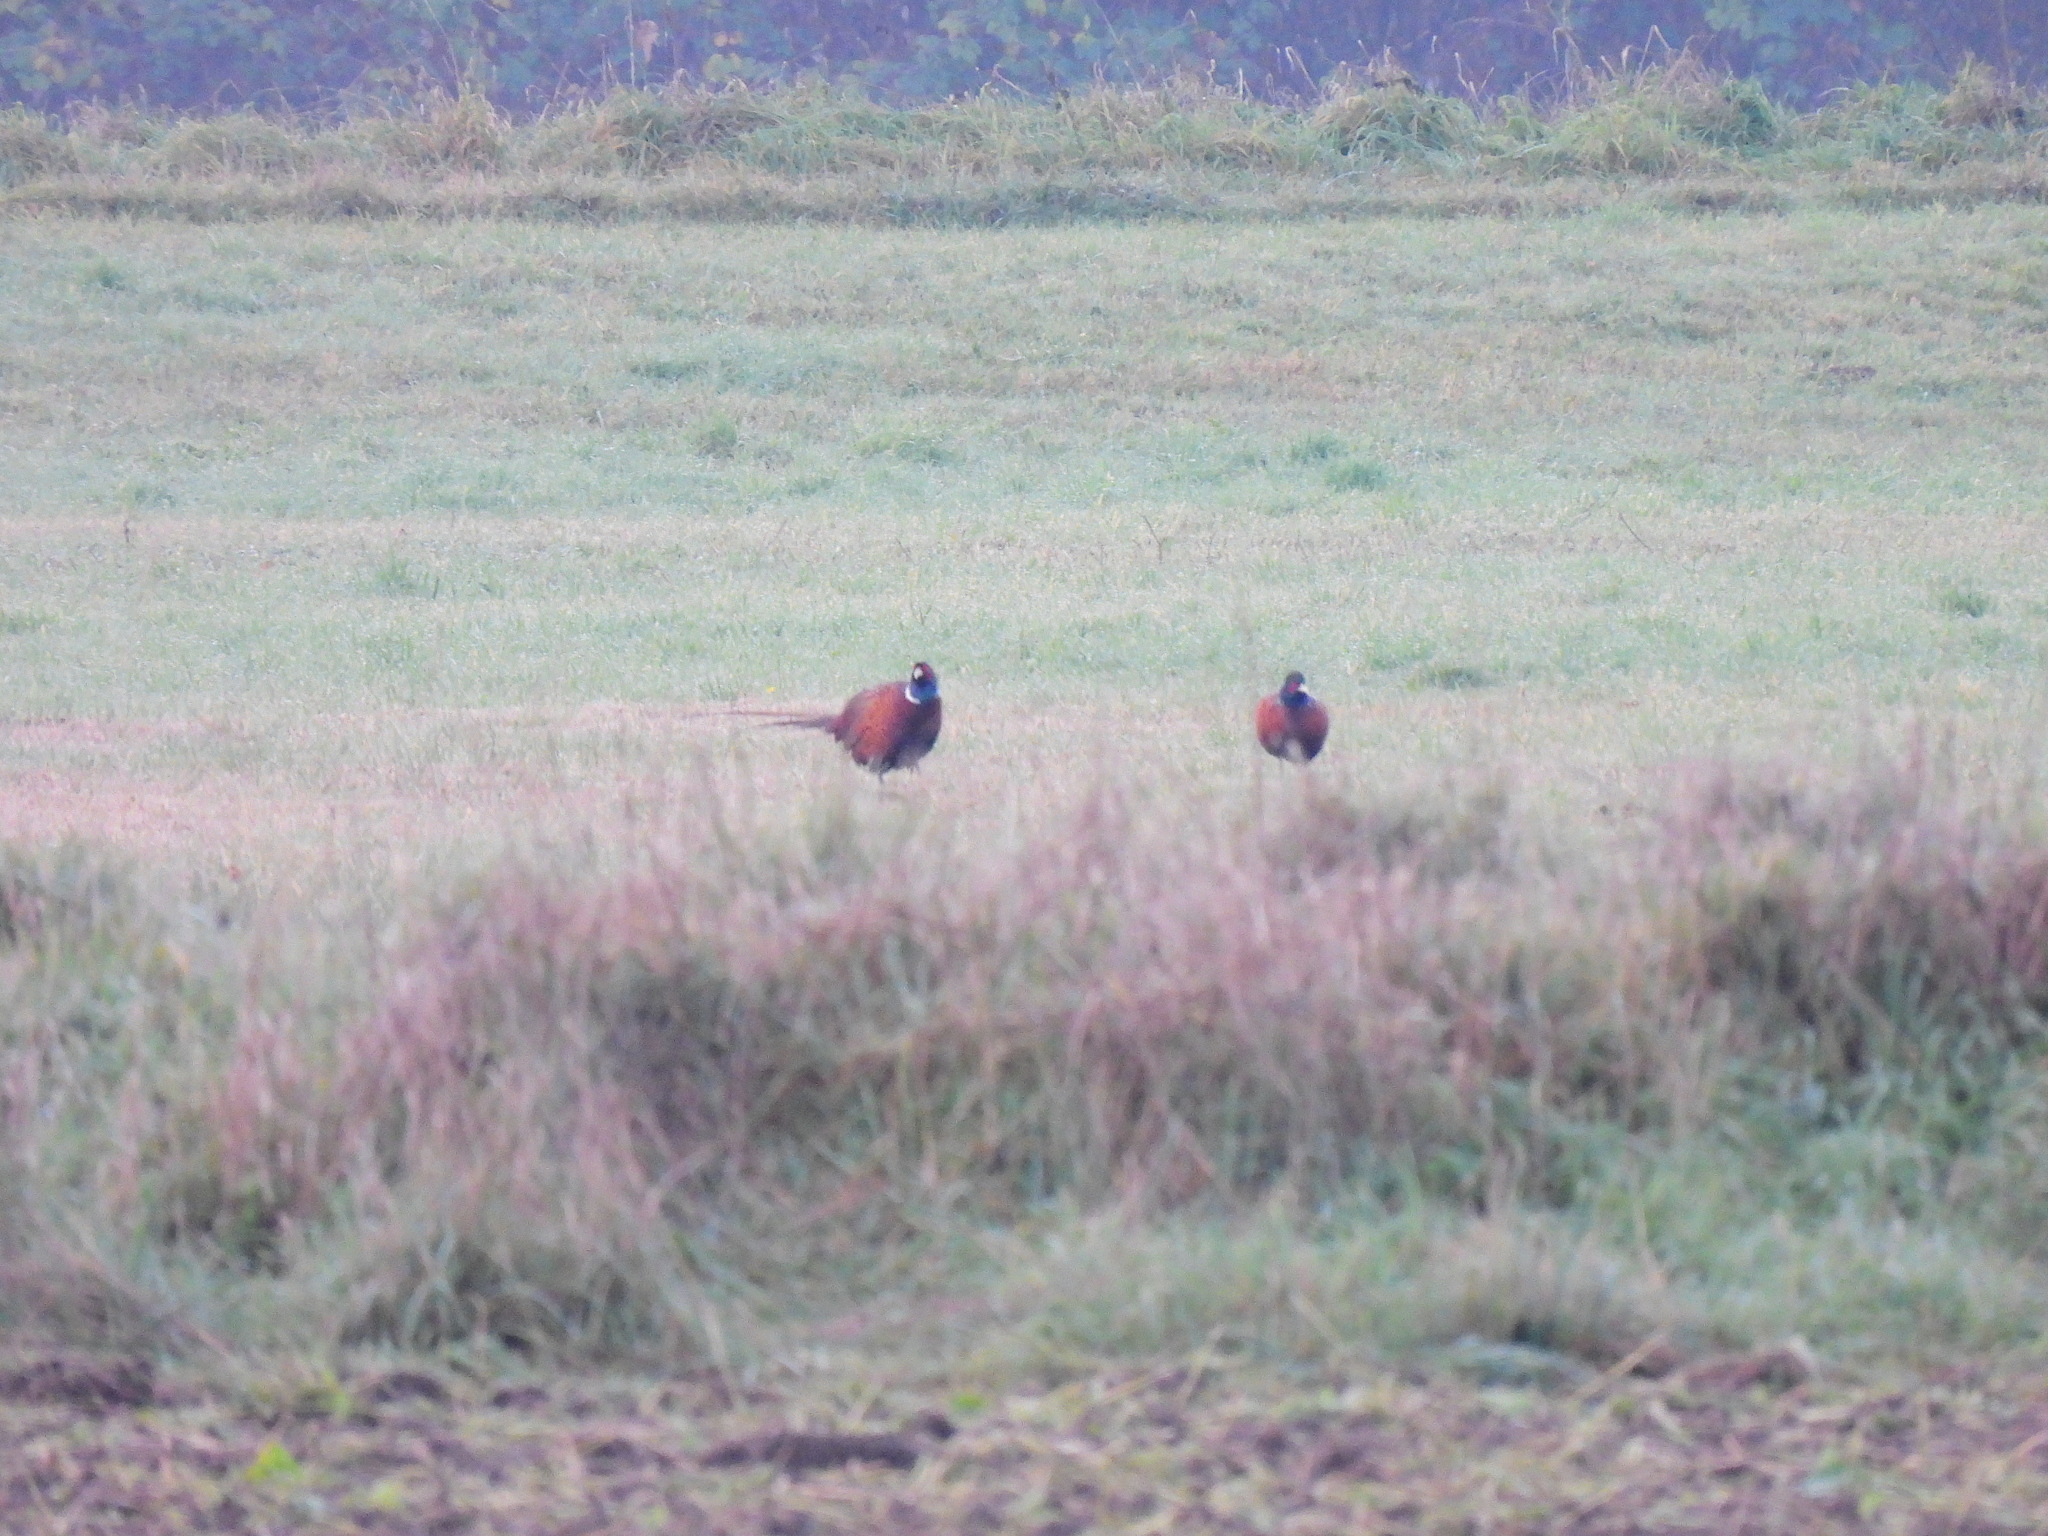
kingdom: Animalia
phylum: Chordata
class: Aves
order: Galliformes
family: Phasianidae
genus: Phasianus
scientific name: Phasianus colchicus
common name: Common pheasant
